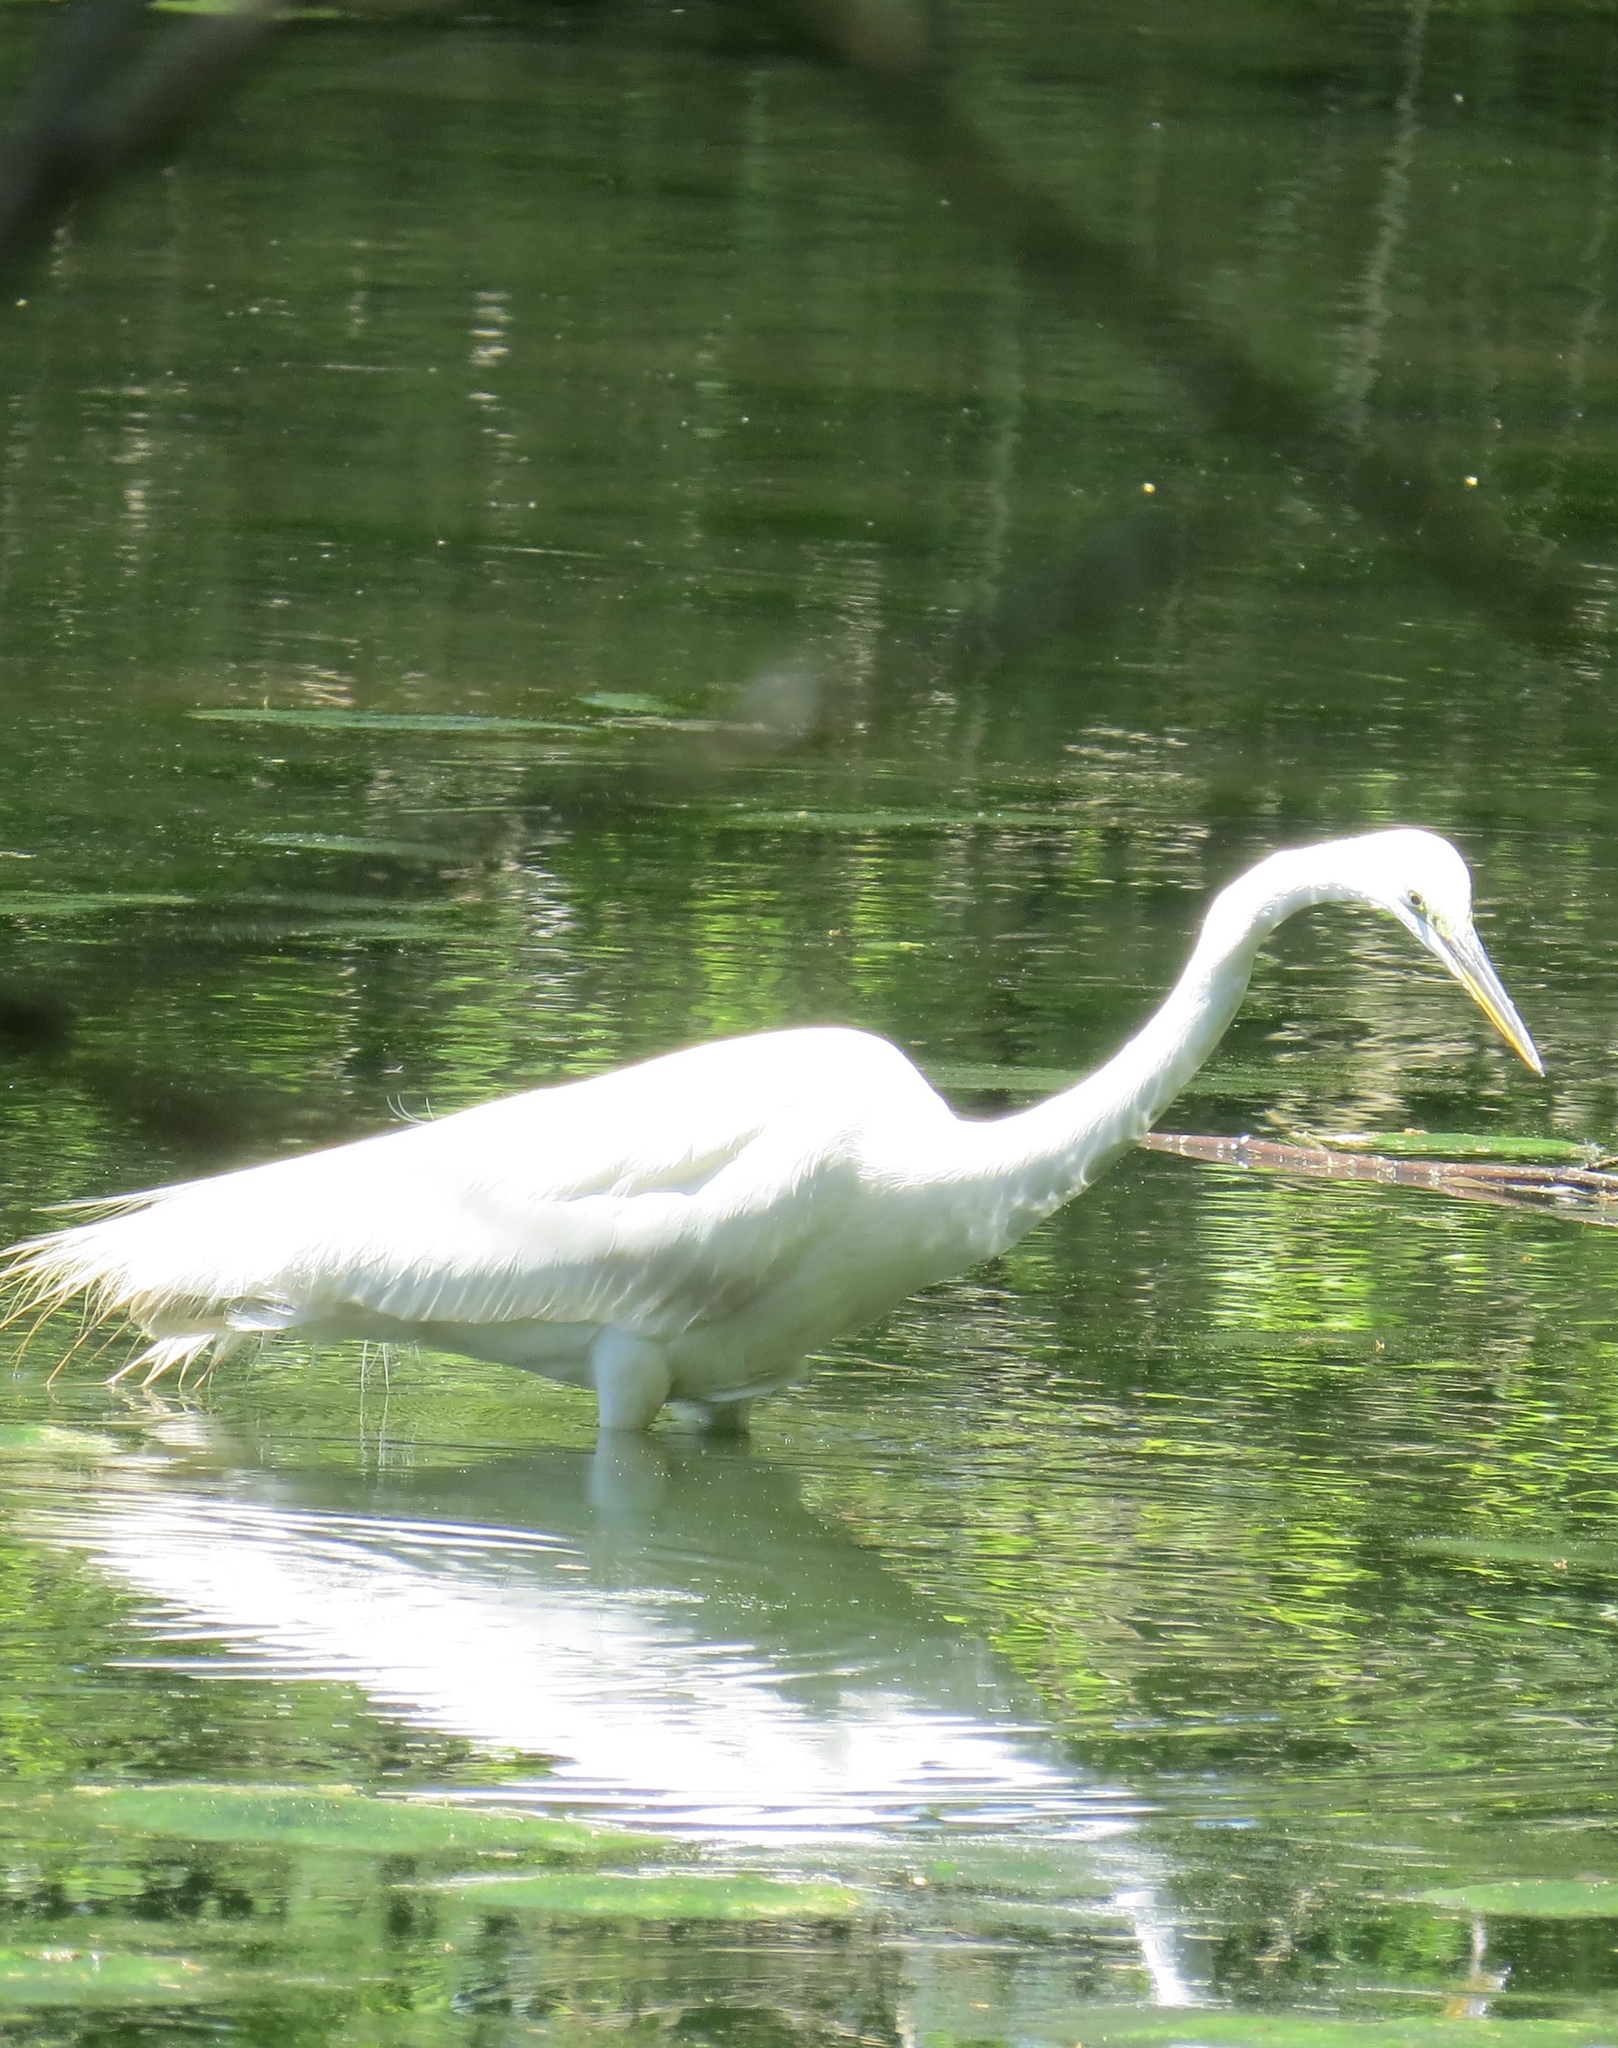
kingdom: Animalia
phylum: Chordata
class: Aves
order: Pelecaniformes
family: Ardeidae
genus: Ardea
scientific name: Ardea alba
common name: Great egret
